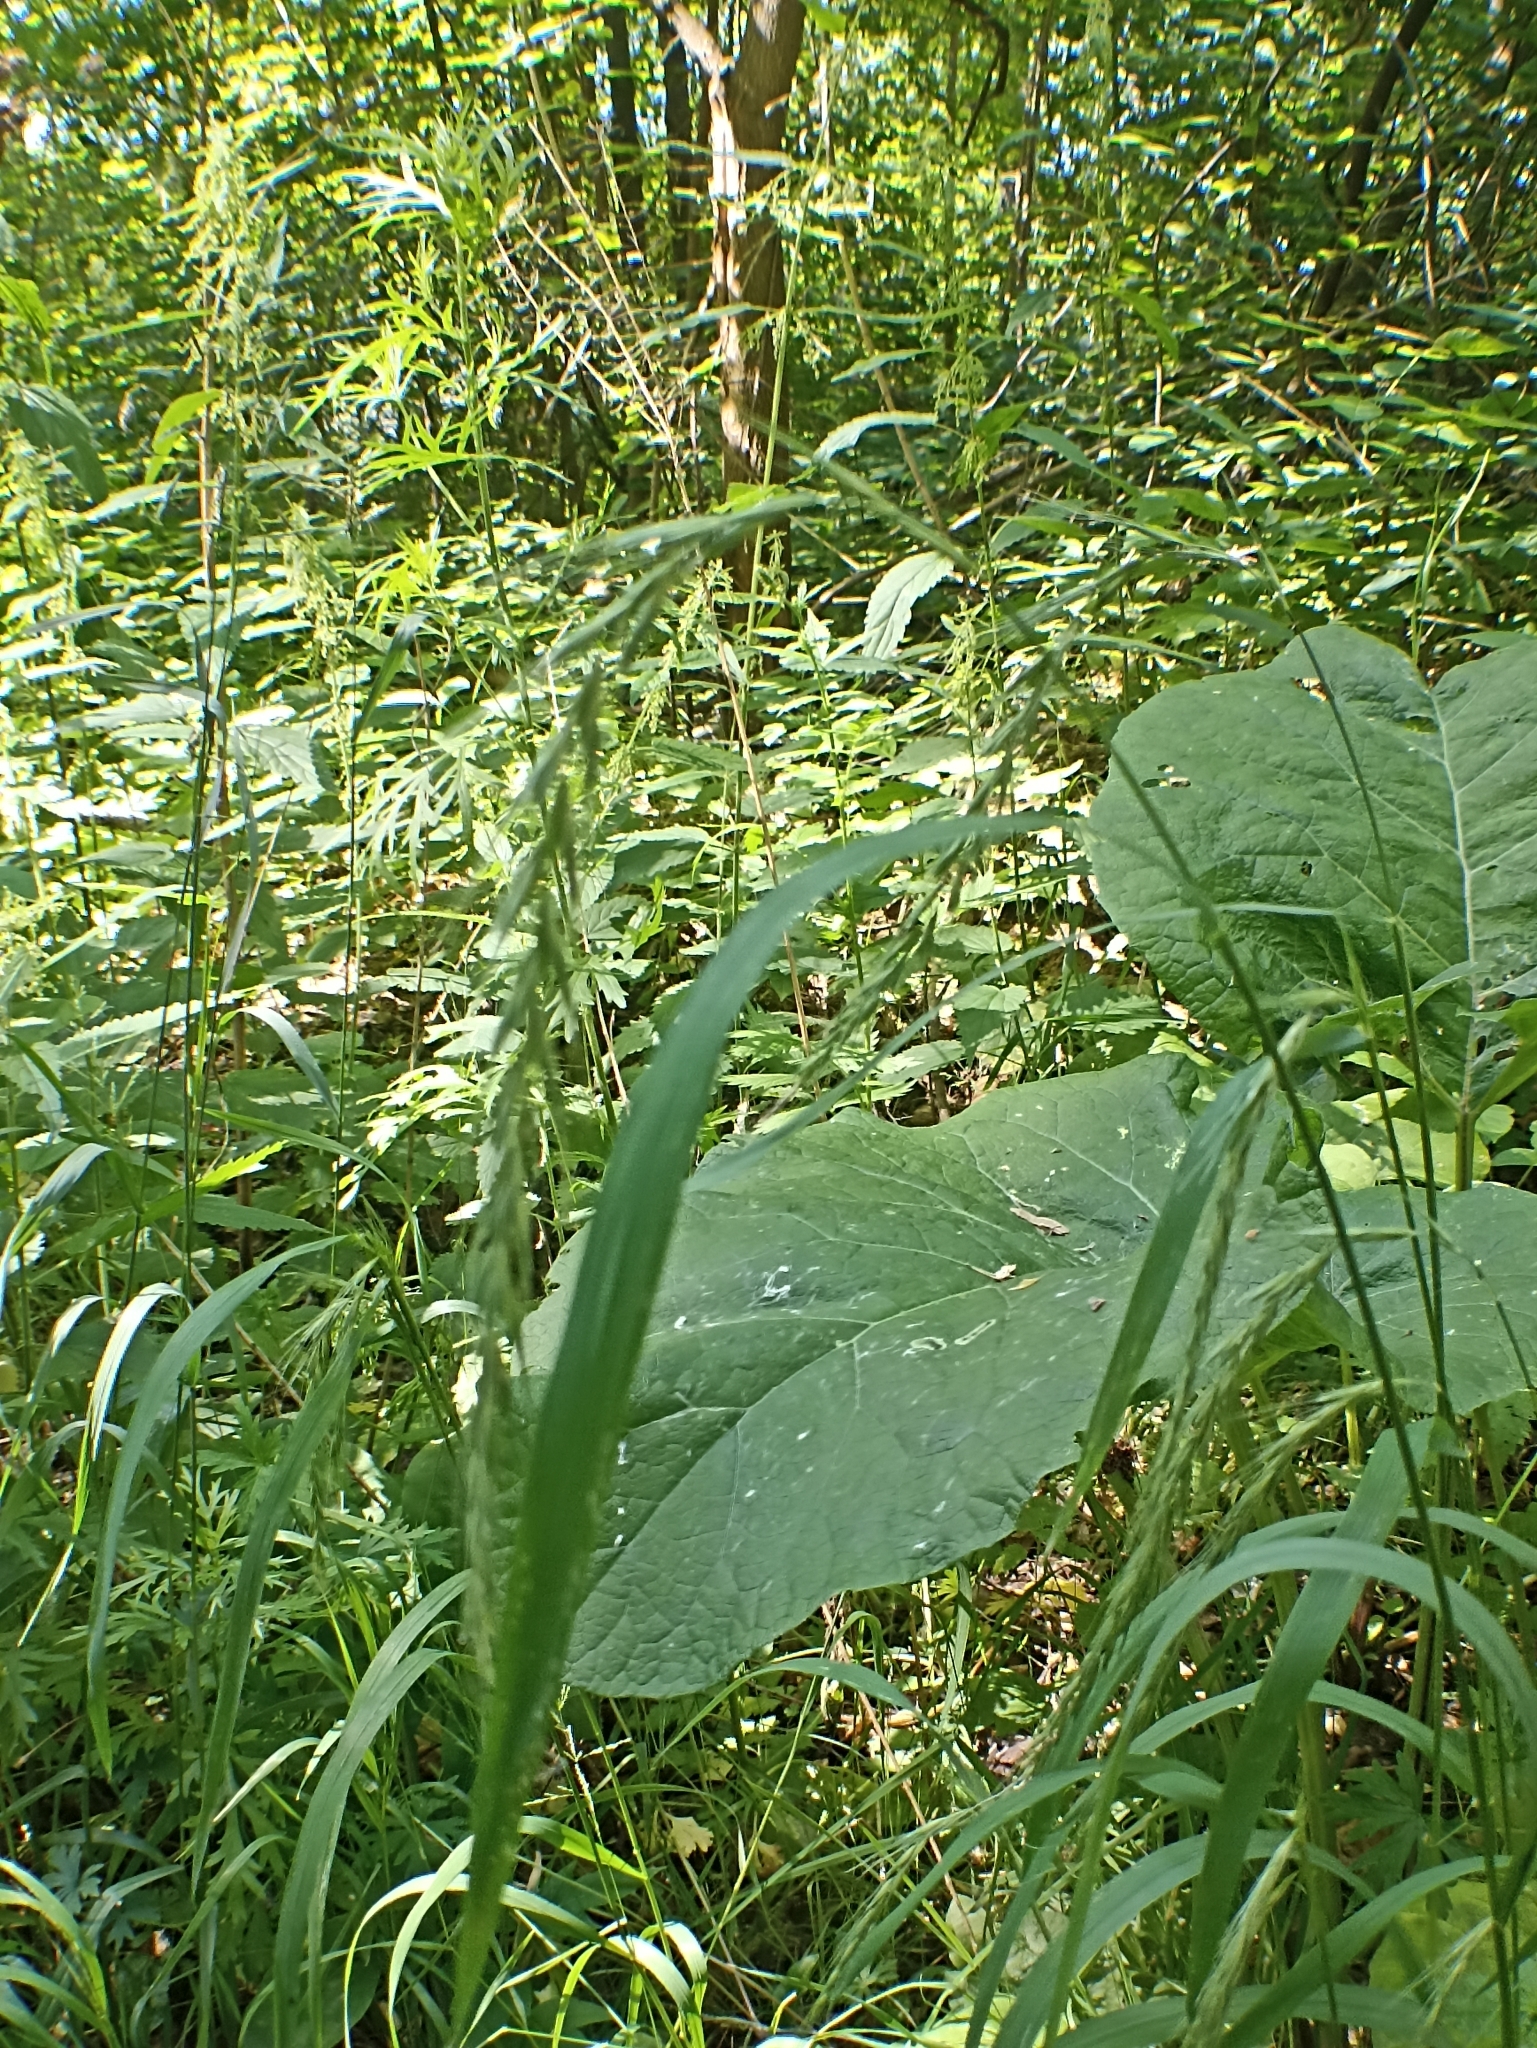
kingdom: Plantae
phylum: Tracheophyta
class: Liliopsida
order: Poales
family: Poaceae
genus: Elymus
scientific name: Elymus sibiricus
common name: Siberian wildrye
